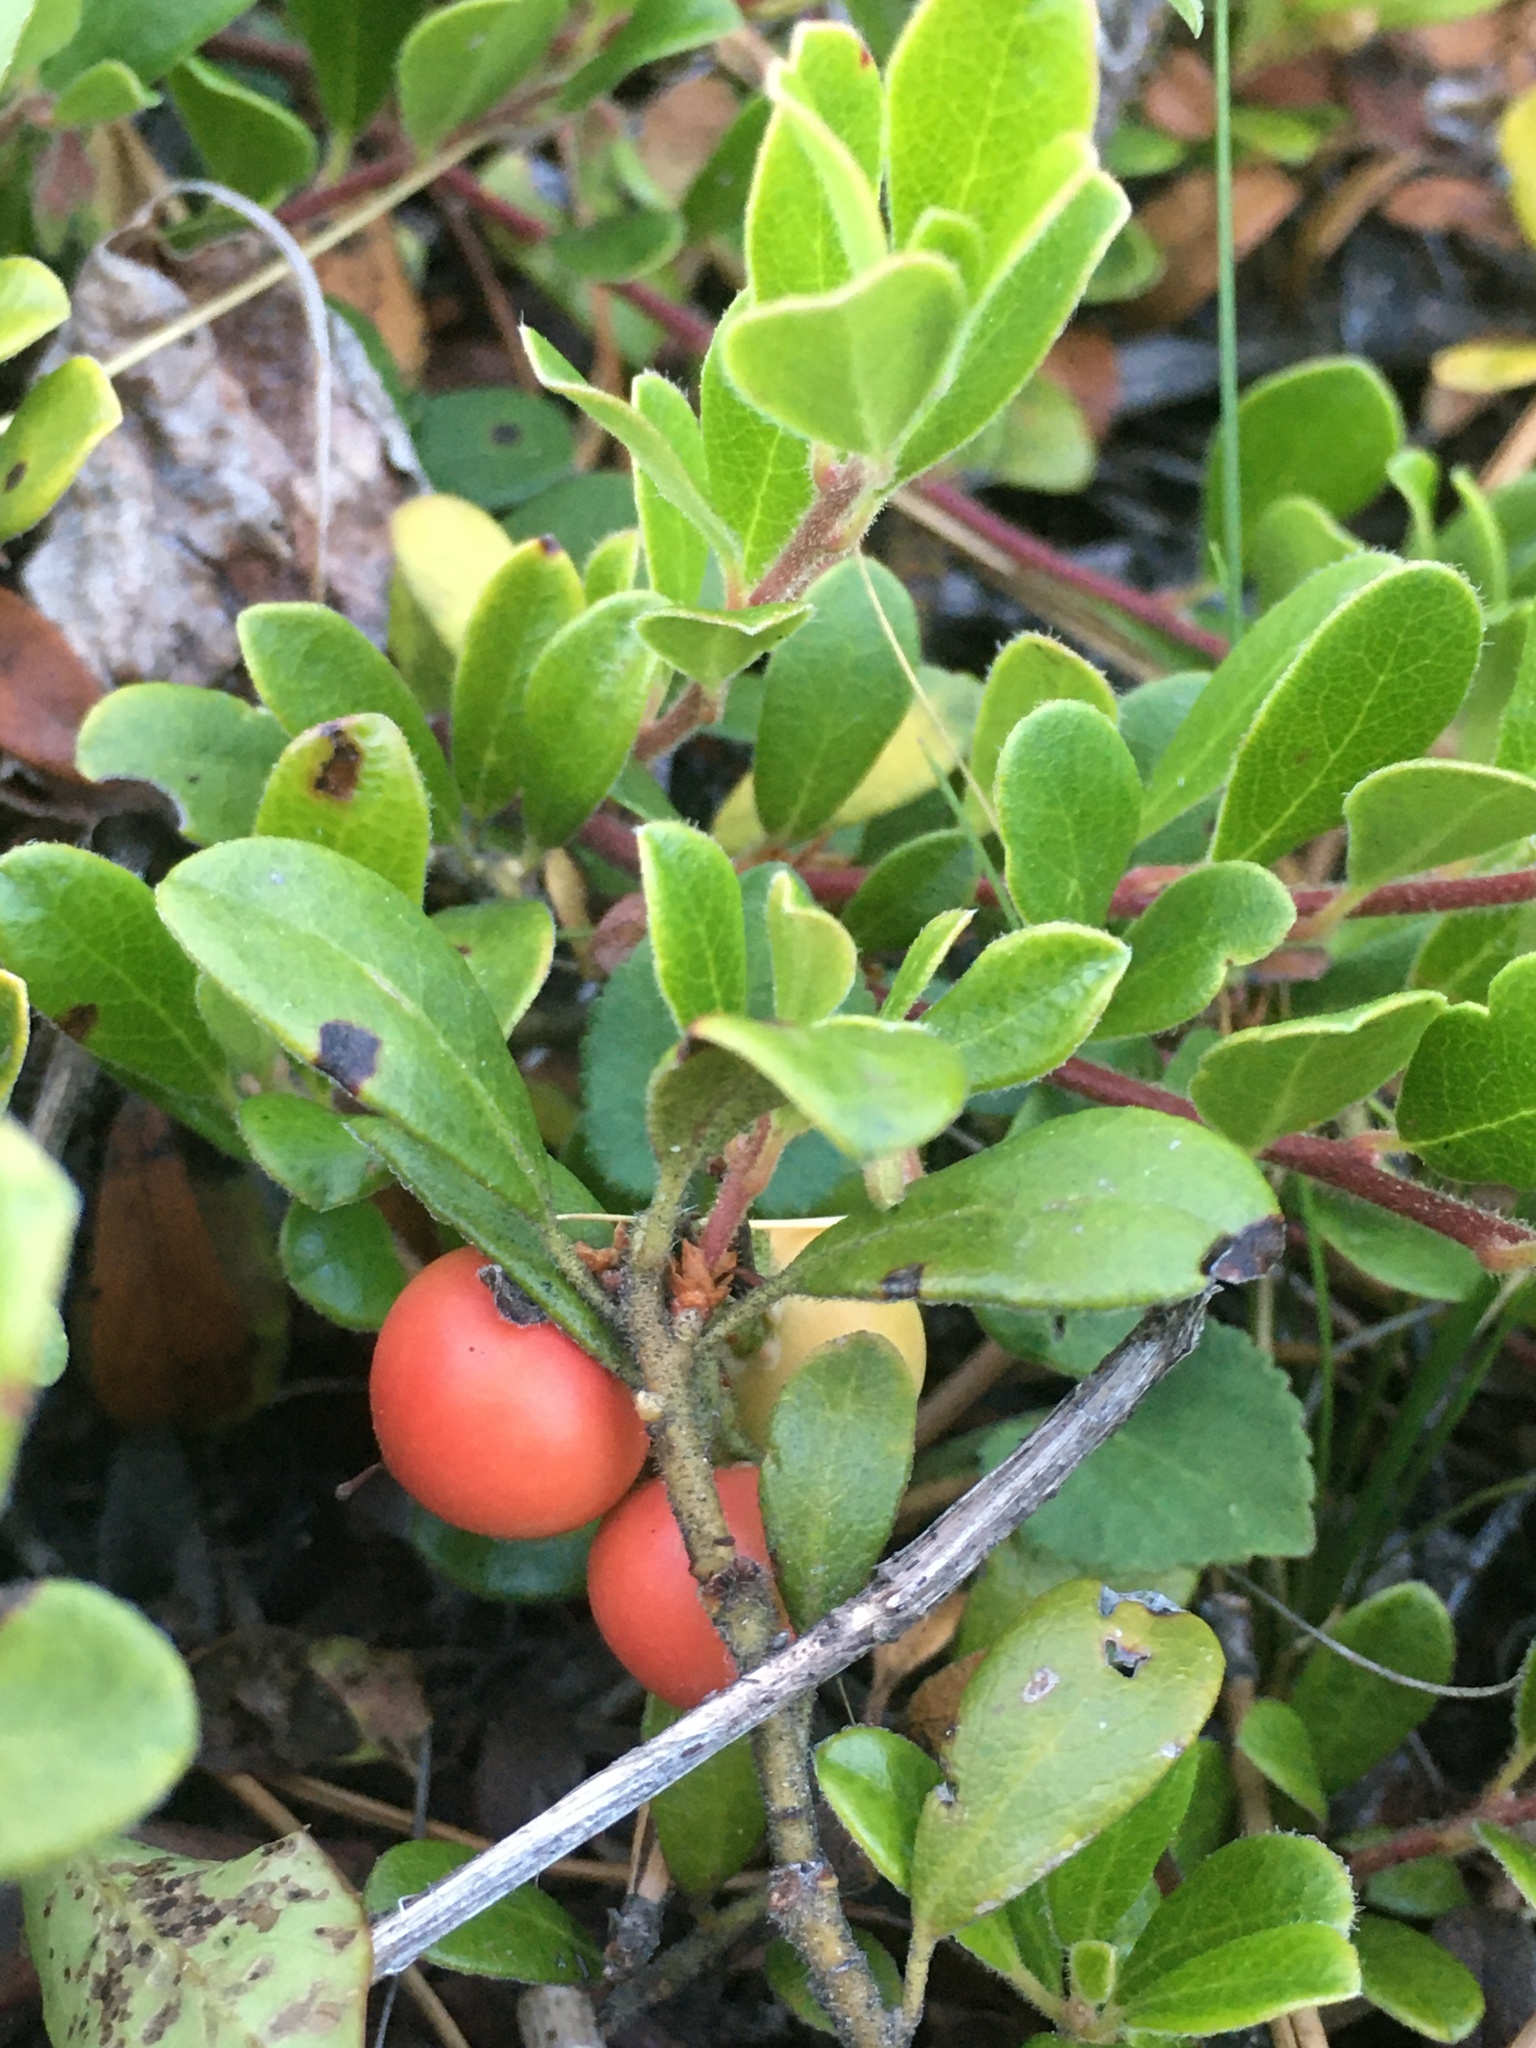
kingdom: Plantae
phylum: Tracheophyta
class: Magnoliopsida
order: Ericales
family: Ericaceae
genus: Arctostaphylos
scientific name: Arctostaphylos uva-ursi
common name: Bearberry
